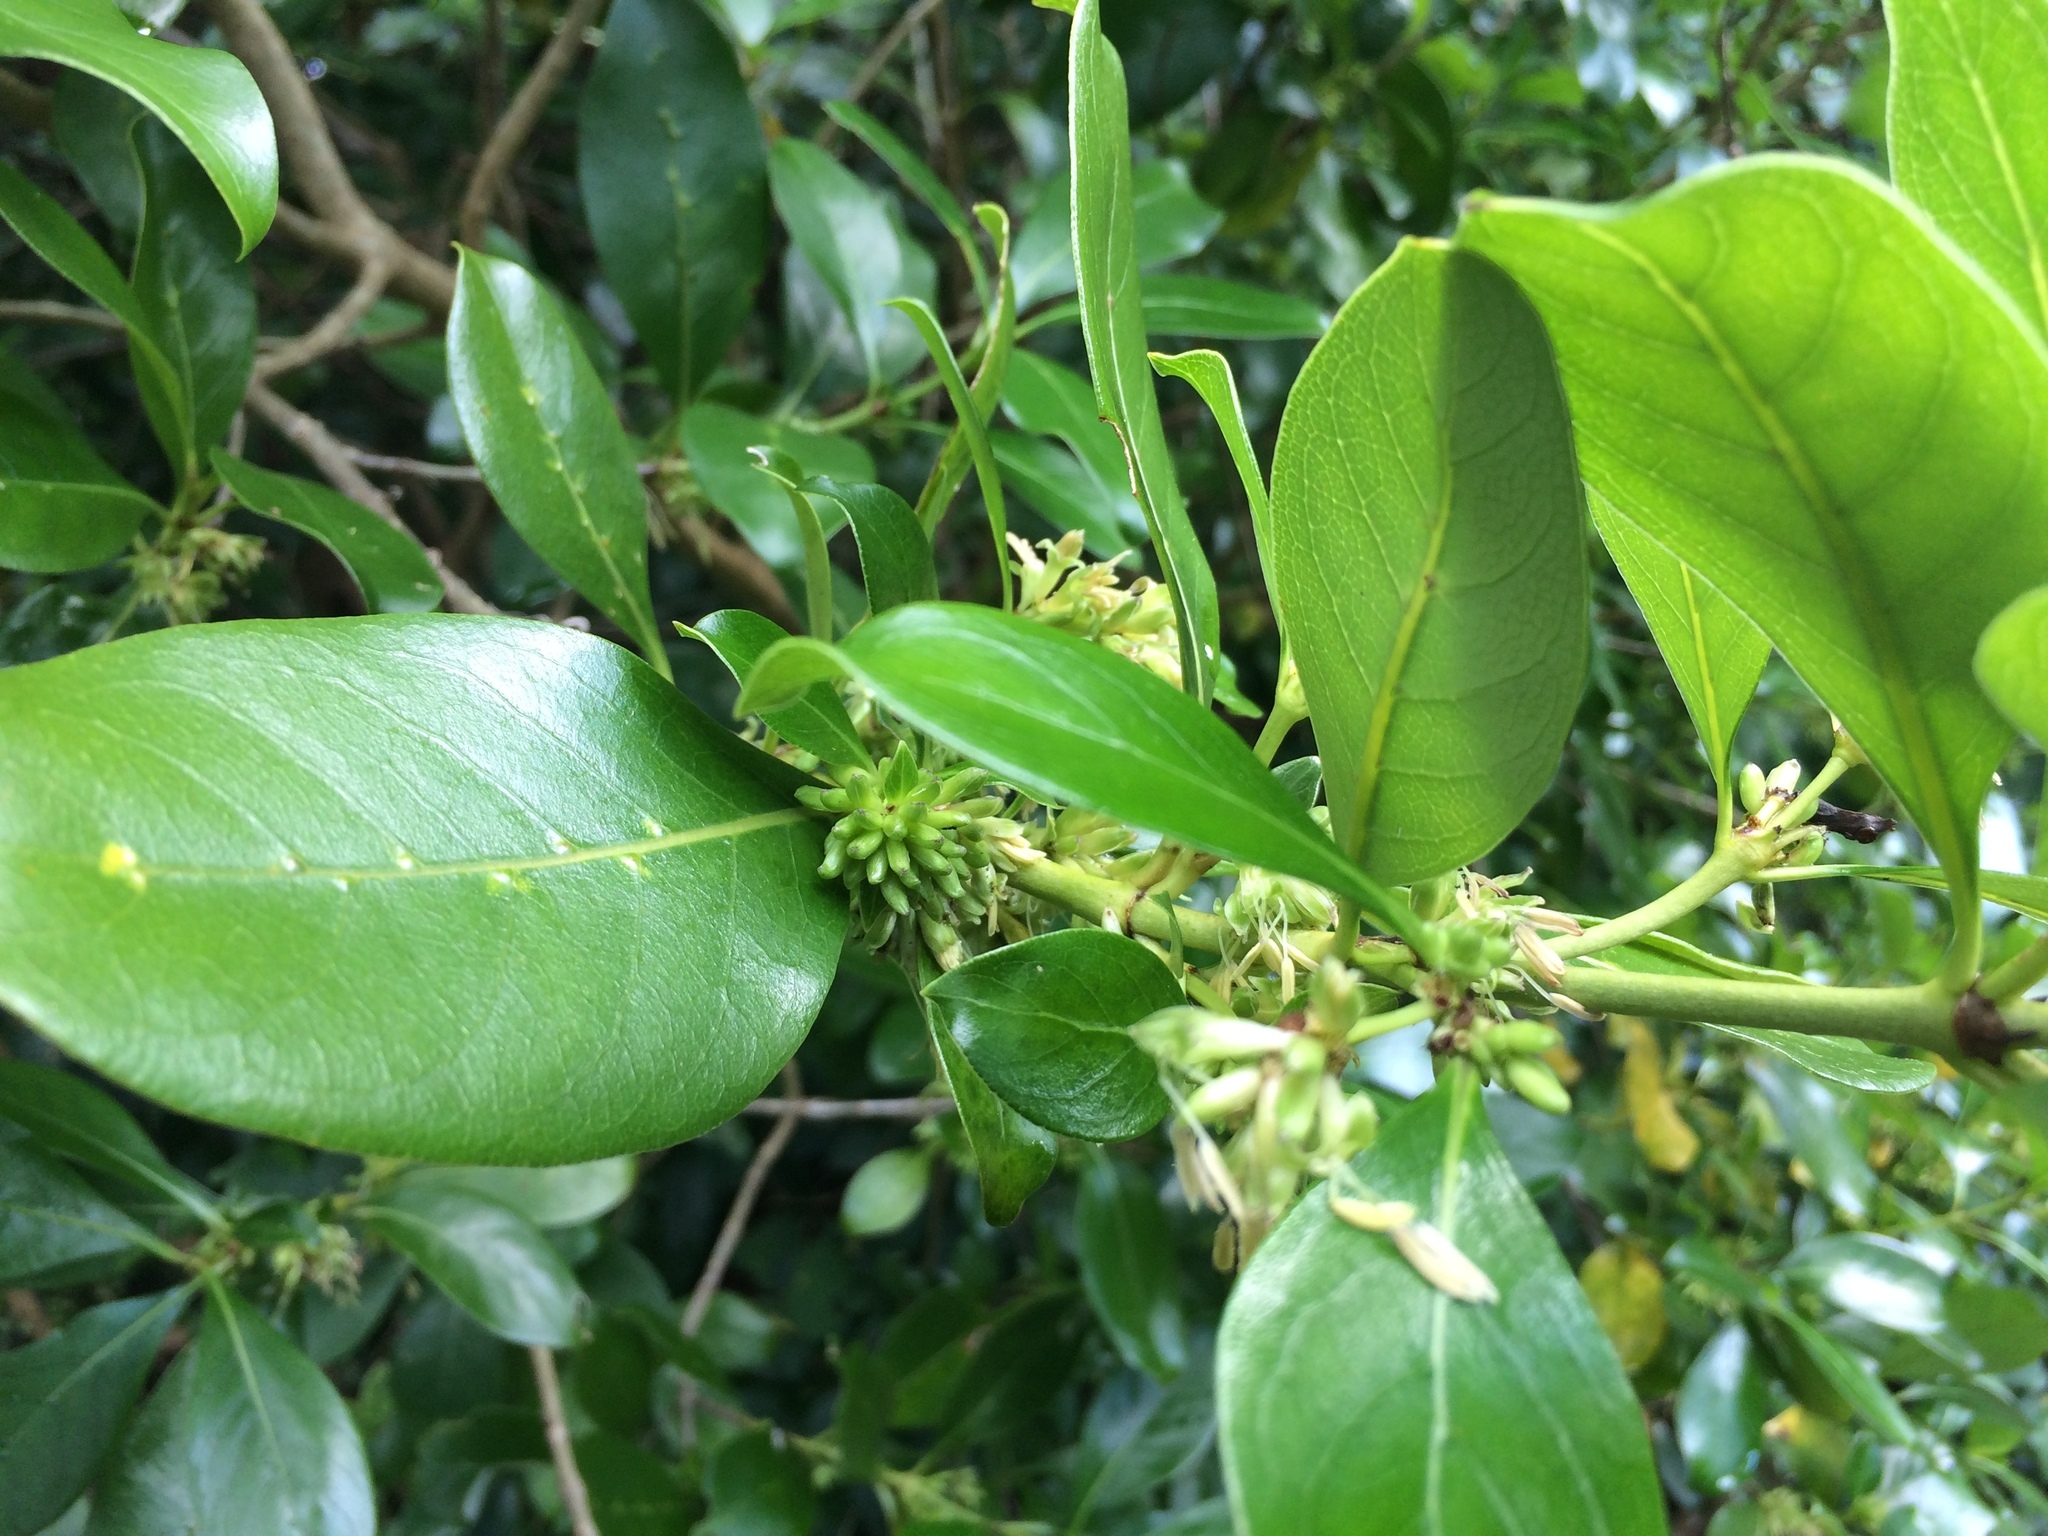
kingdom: Plantae
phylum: Tracheophyta
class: Magnoliopsida
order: Gentianales
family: Rubiaceae
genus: Coprosma
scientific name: Coprosma macrocarpa
